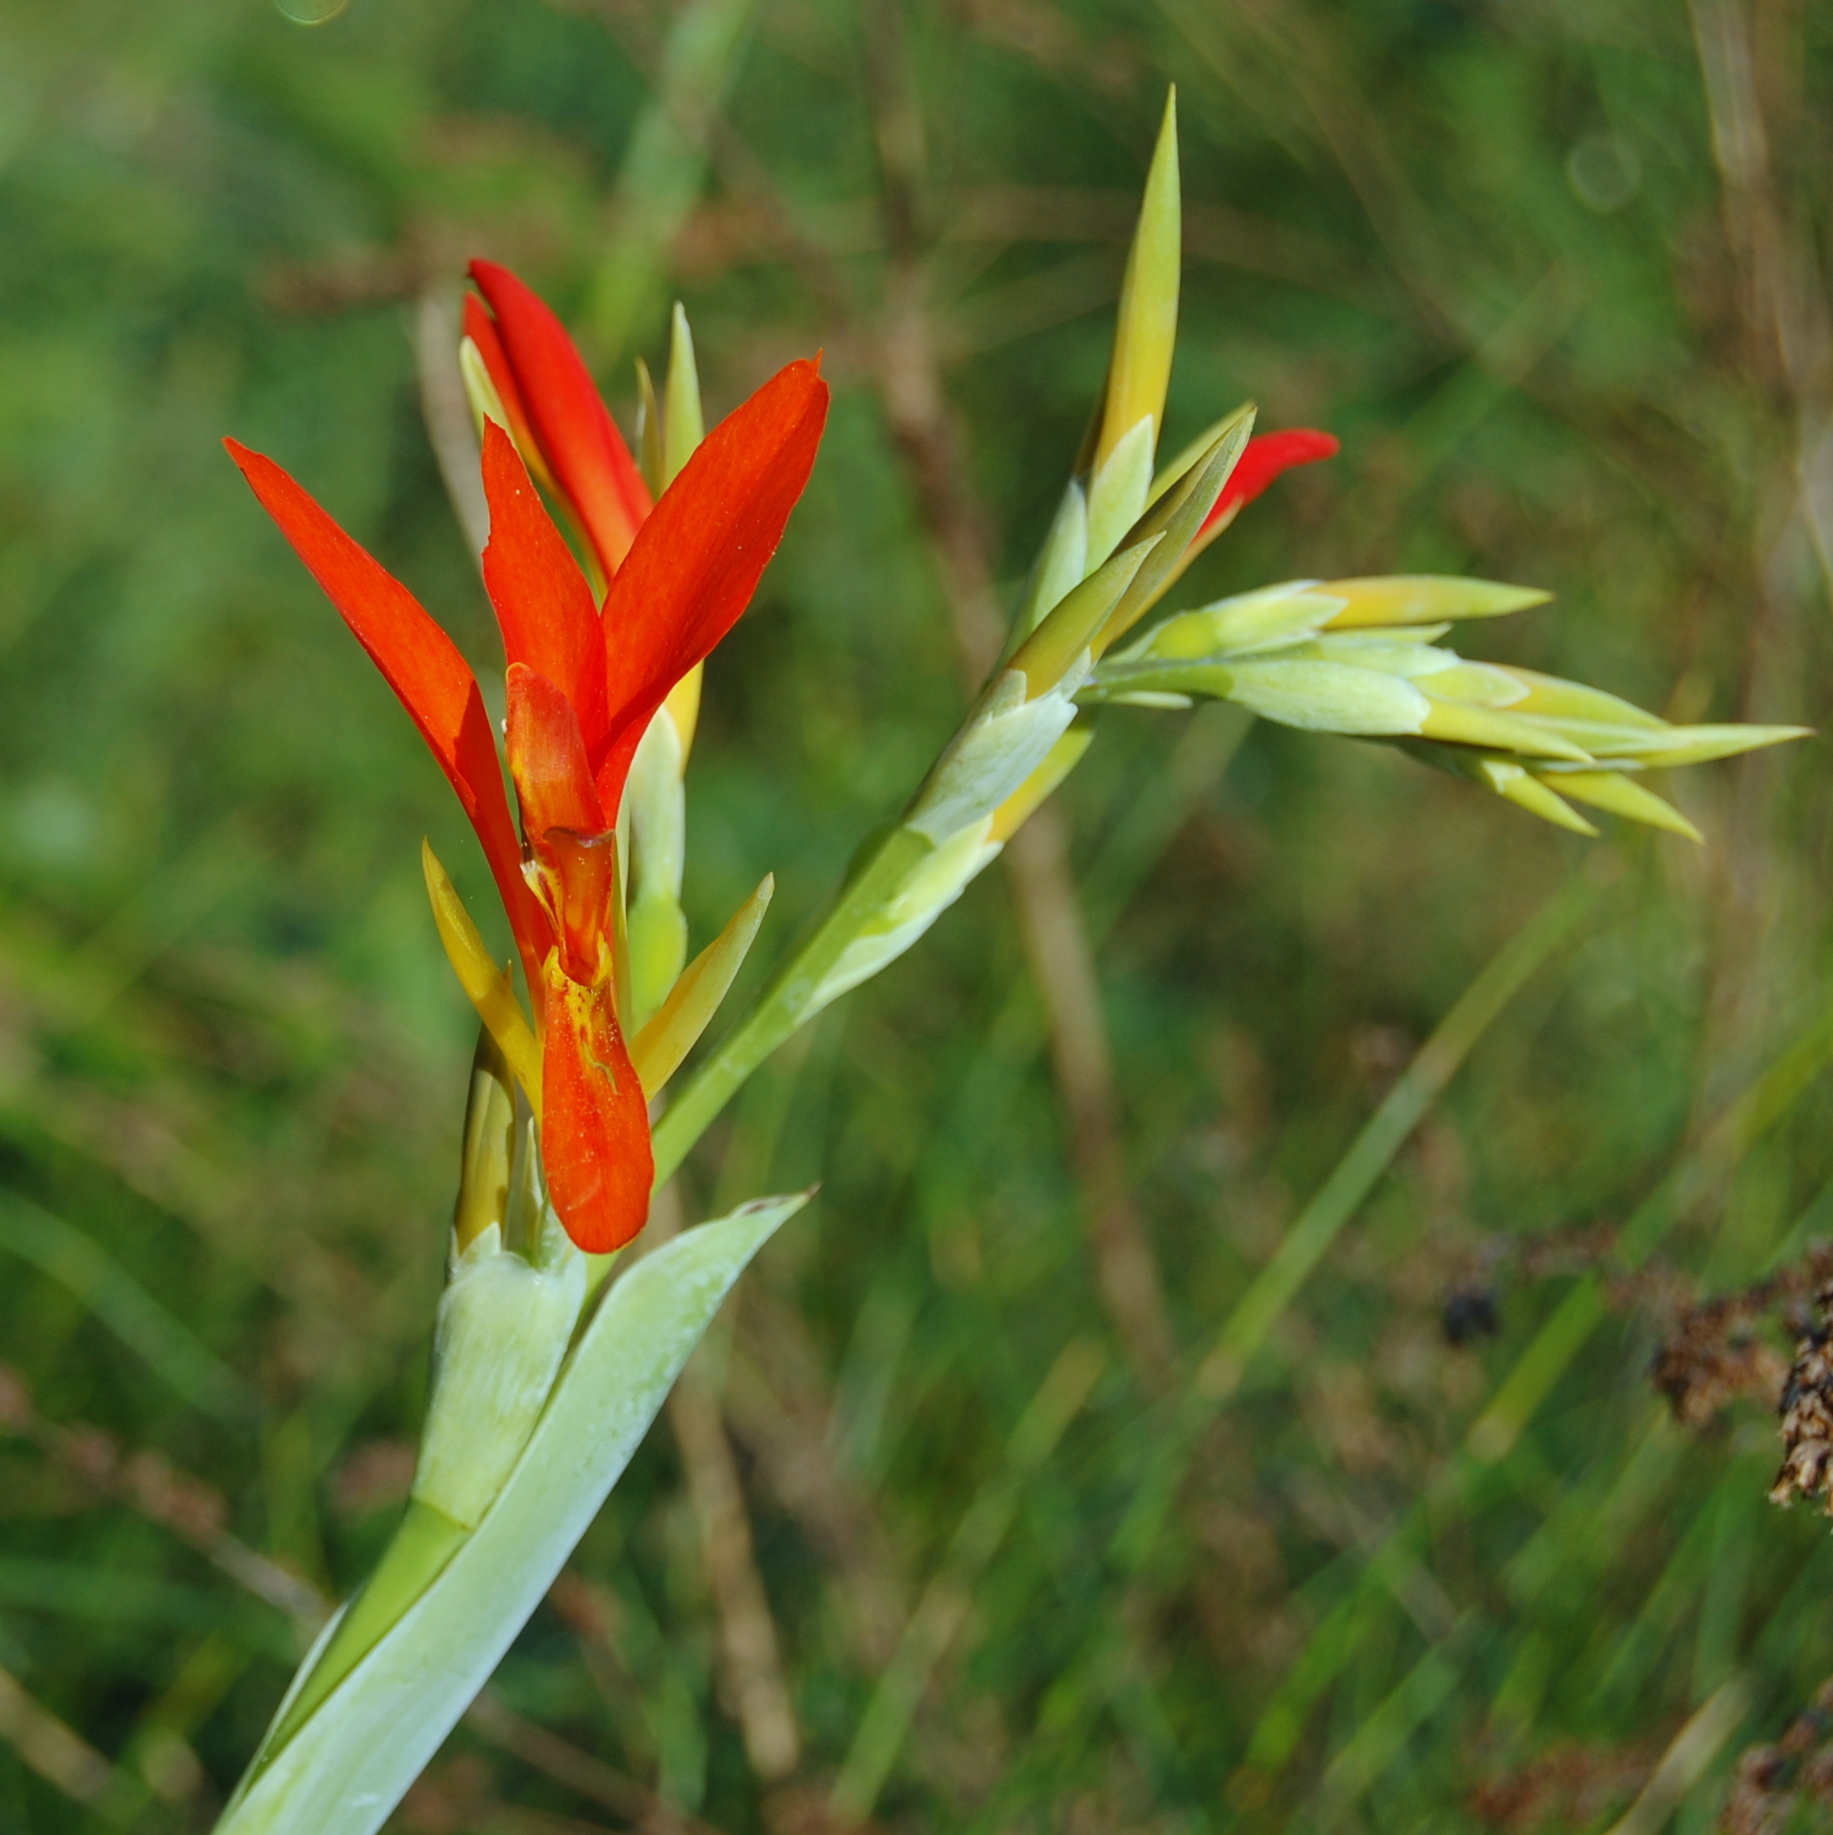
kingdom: Plantae
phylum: Tracheophyta
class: Liliopsida
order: Zingiberales
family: Cannaceae
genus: Canna
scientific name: Canna indica
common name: Indian shot
